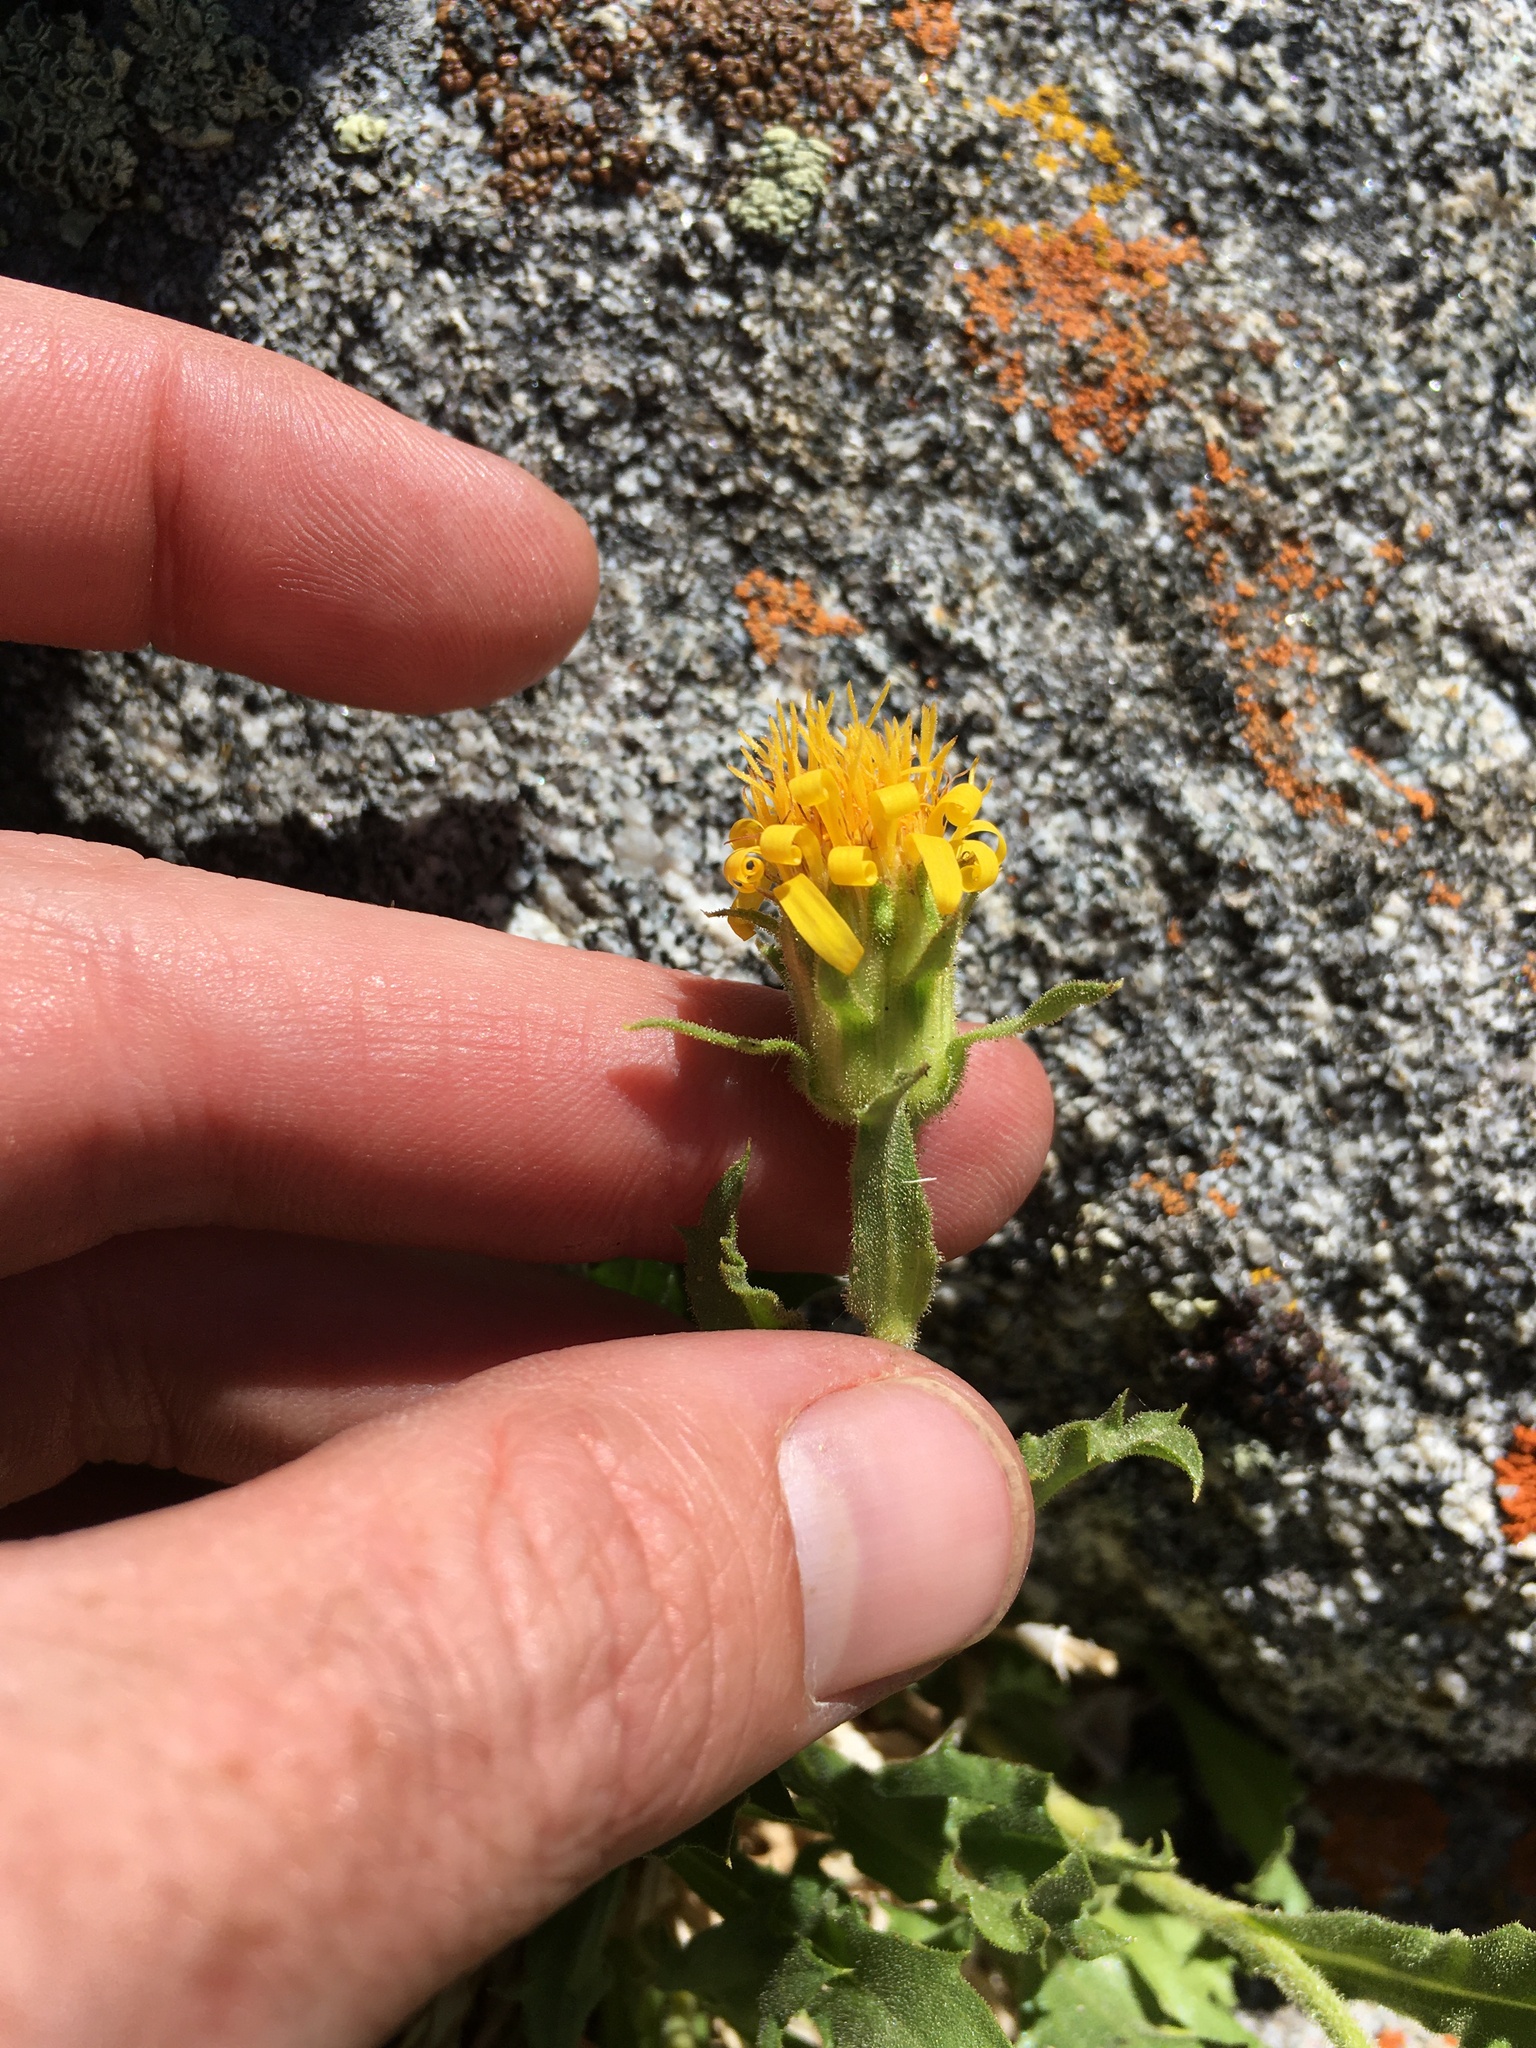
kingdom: Plantae
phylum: Tracheophyta
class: Magnoliopsida
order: Asterales
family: Asteraceae
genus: Toiyabea
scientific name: Toiyabea peirsonii
